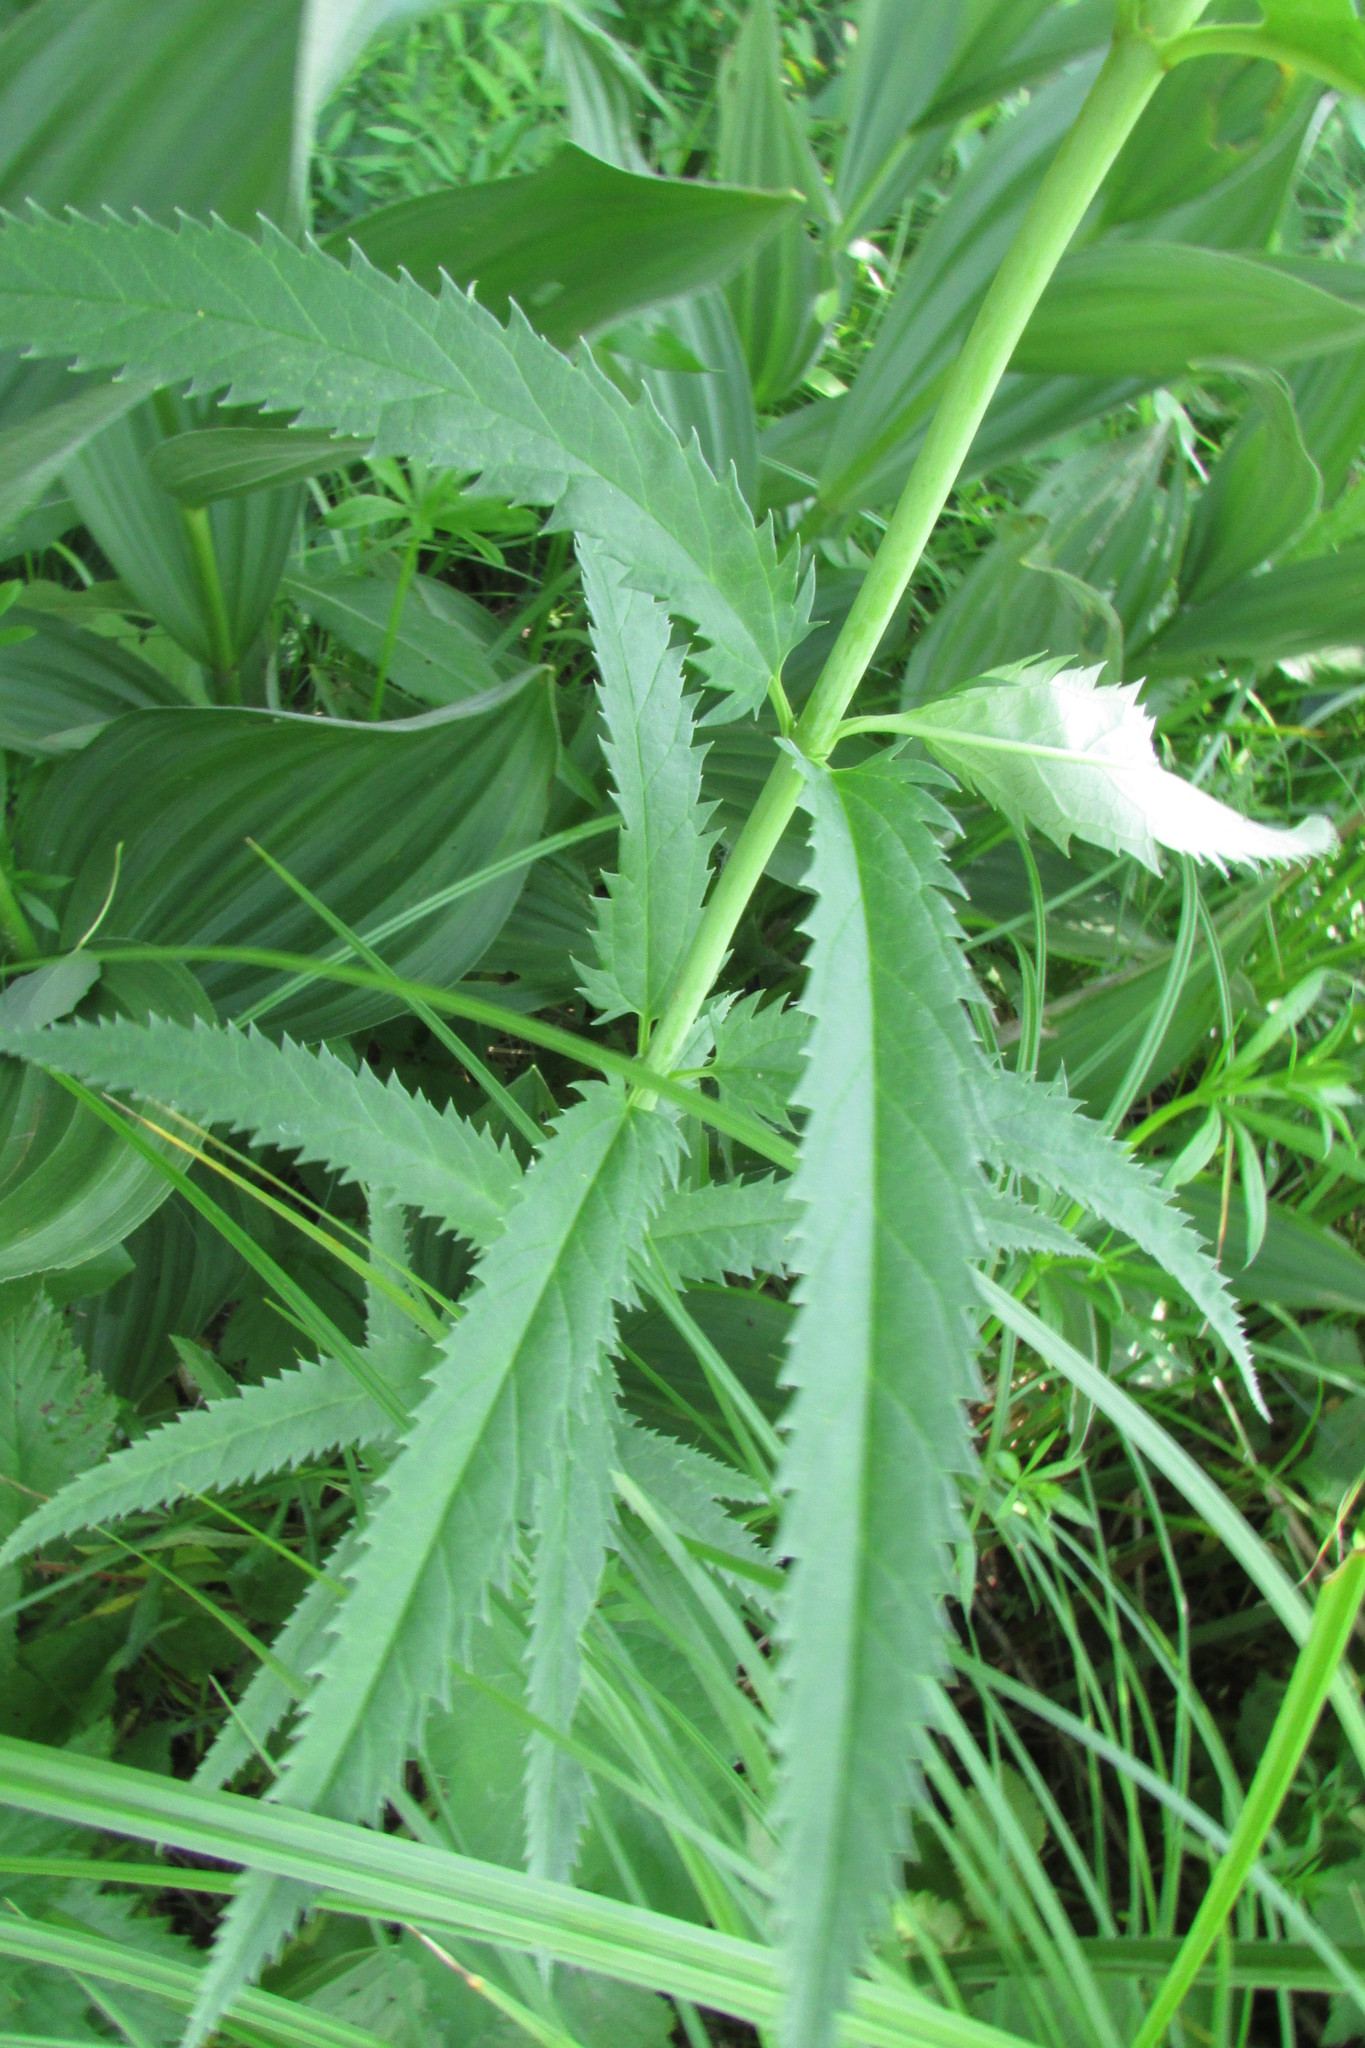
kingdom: Plantae
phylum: Tracheophyta
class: Magnoliopsida
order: Lamiales
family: Plantaginaceae
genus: Veronica
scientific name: Veronica longifolia
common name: Garden speedwell
